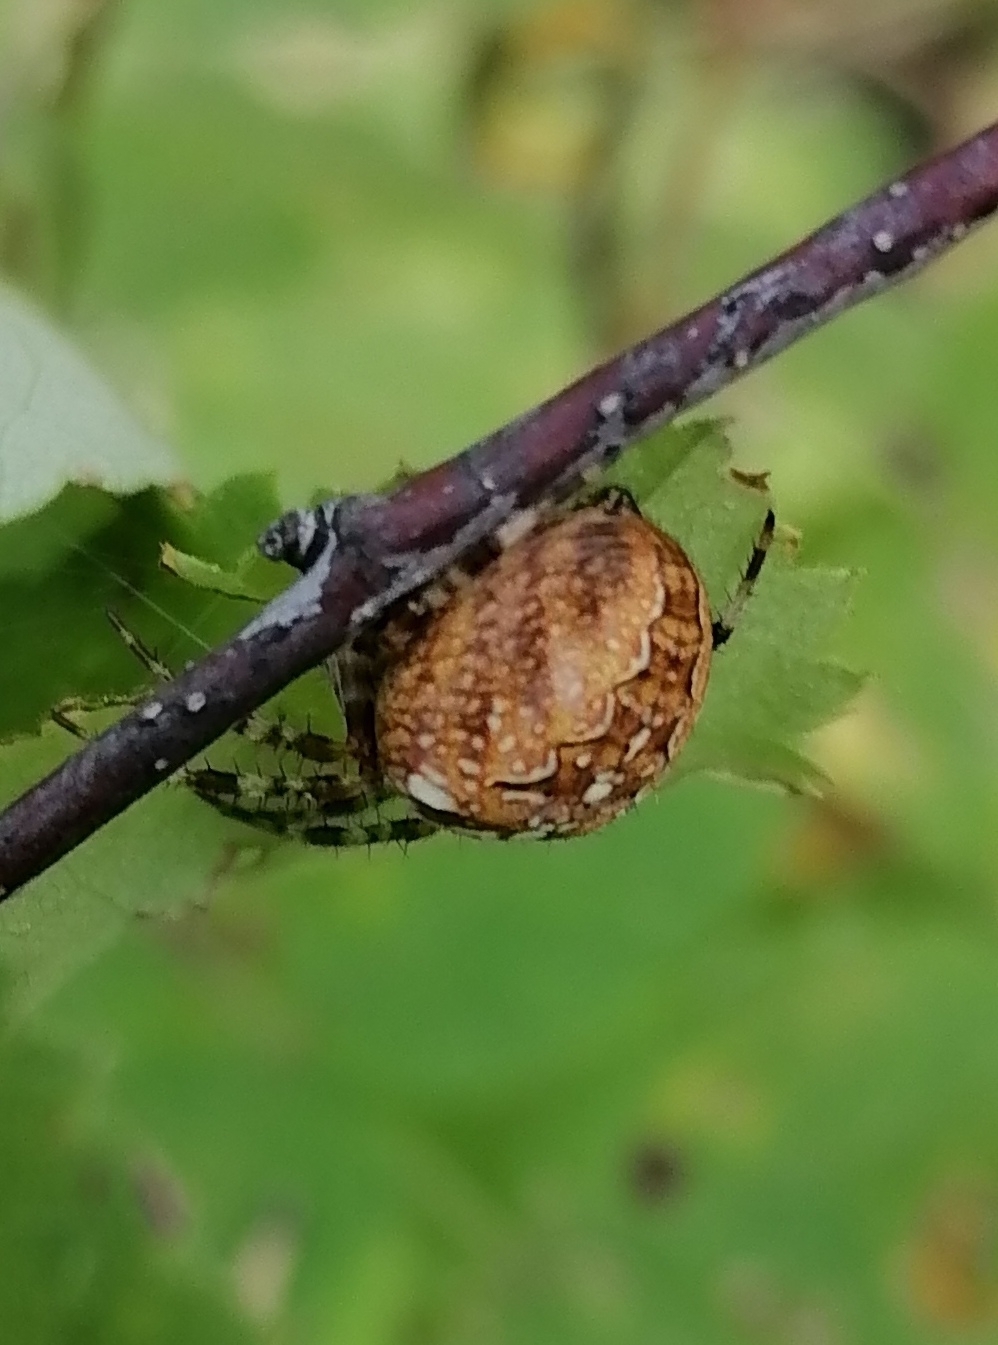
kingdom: Animalia
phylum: Arthropoda
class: Arachnida
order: Araneae
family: Araneidae
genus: Araneus
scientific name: Araneus diadematus
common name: Cross orbweaver
